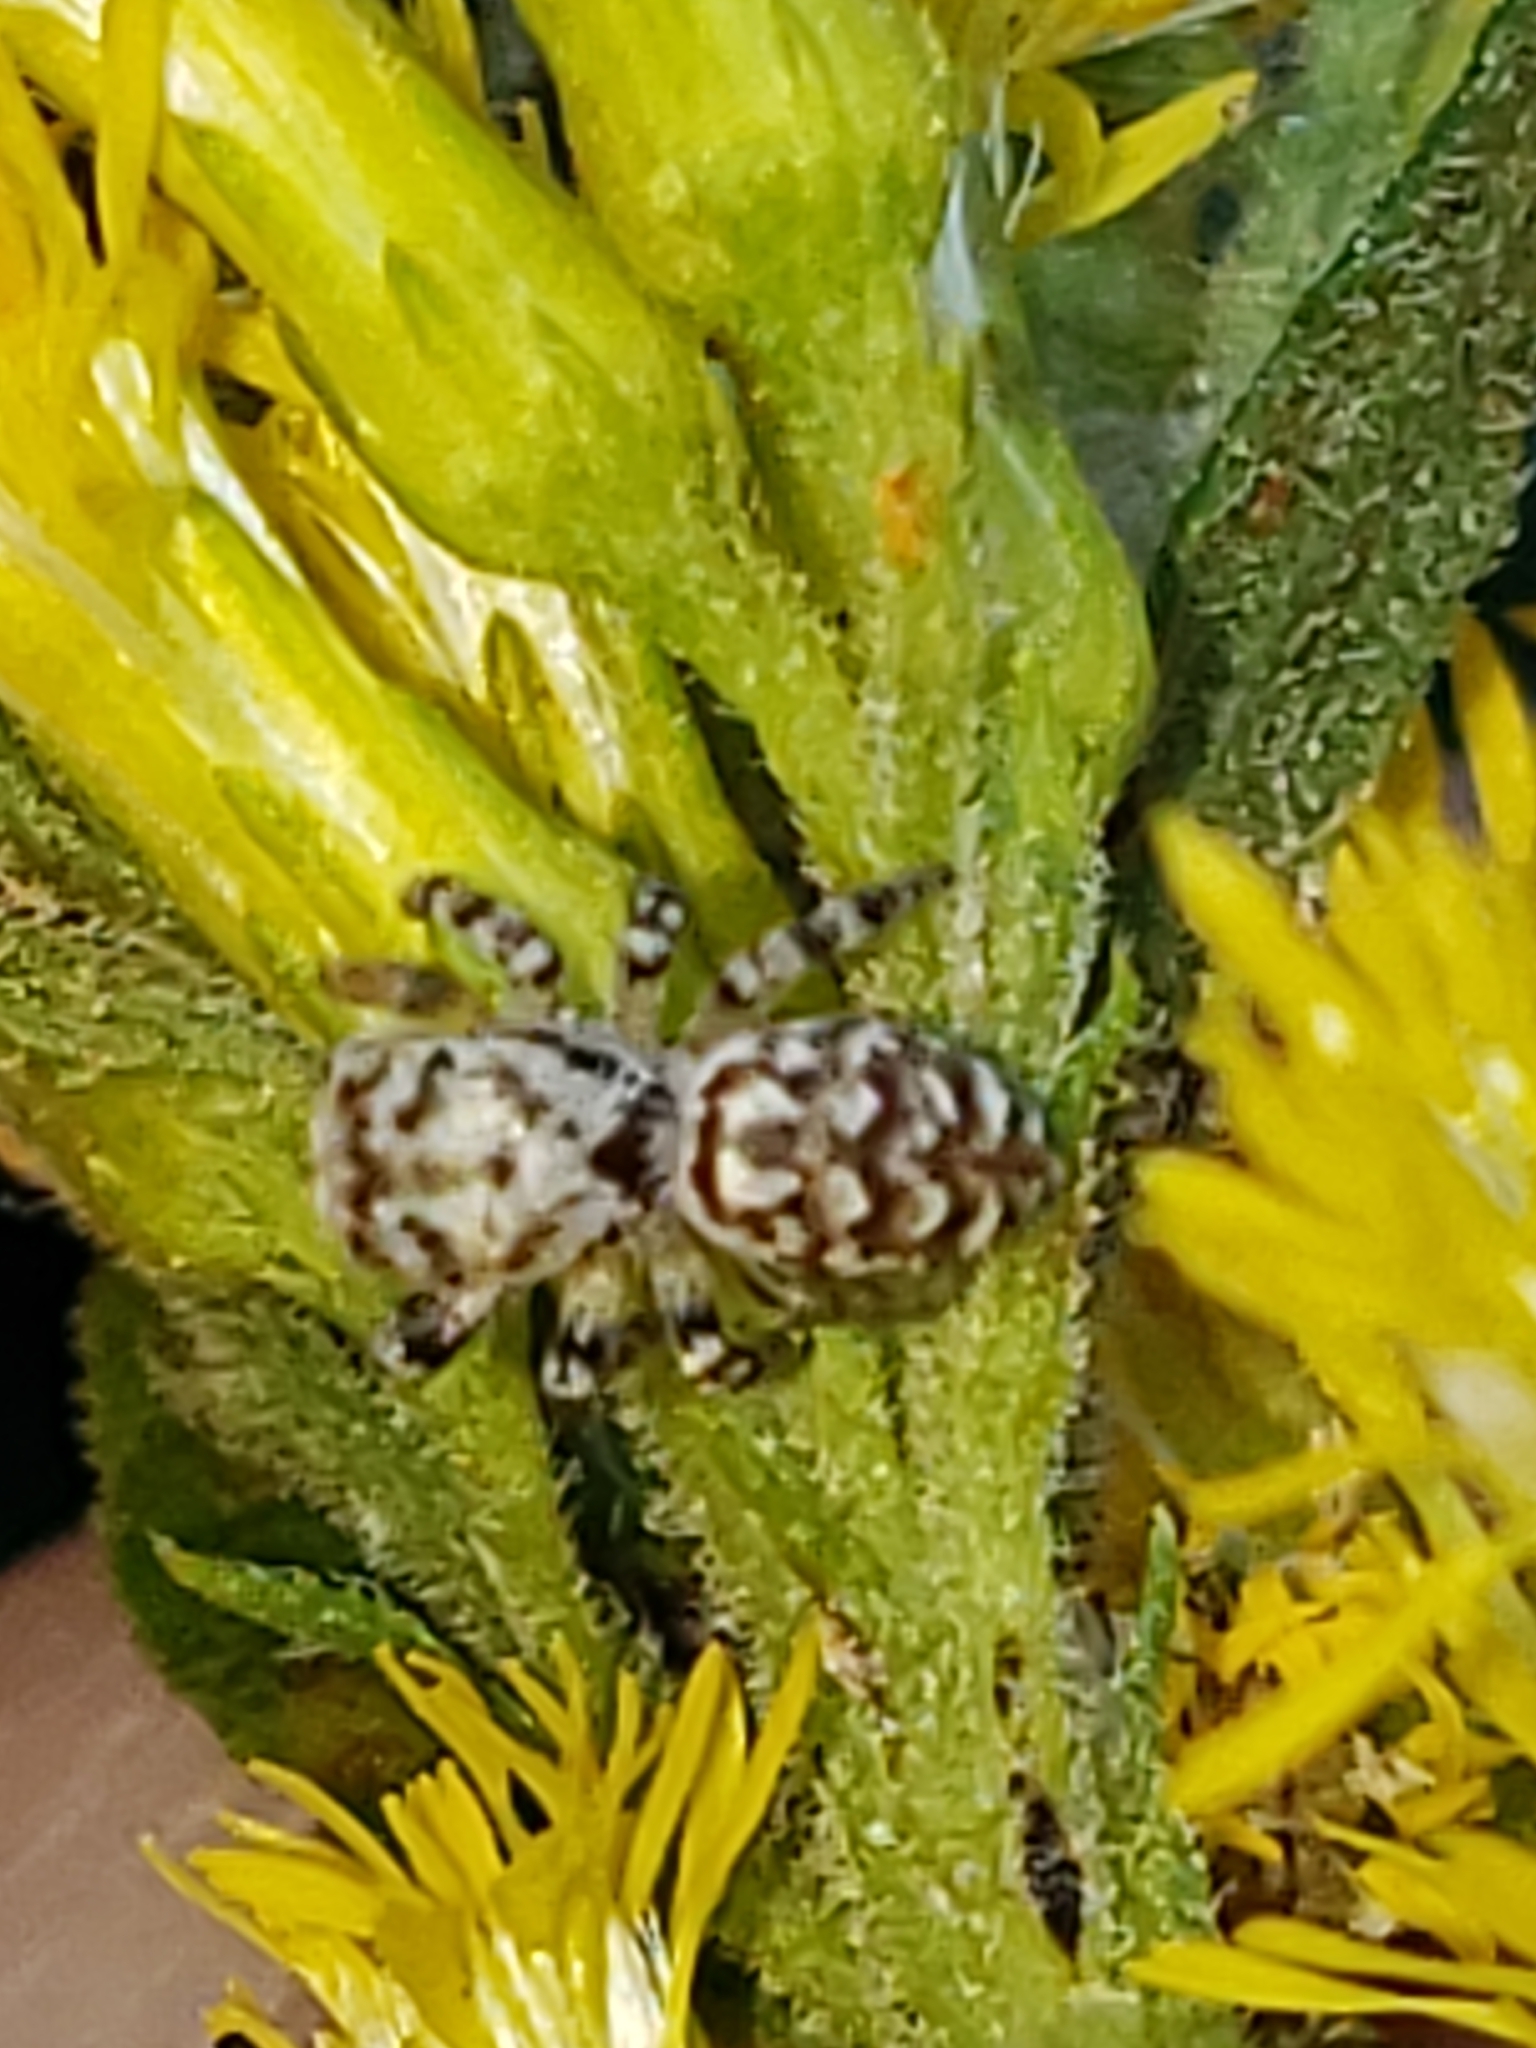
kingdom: Animalia
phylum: Arthropoda
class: Arachnida
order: Araneae
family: Salticidae
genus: Pelegrina
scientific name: Pelegrina galathea
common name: Jumping spiders
